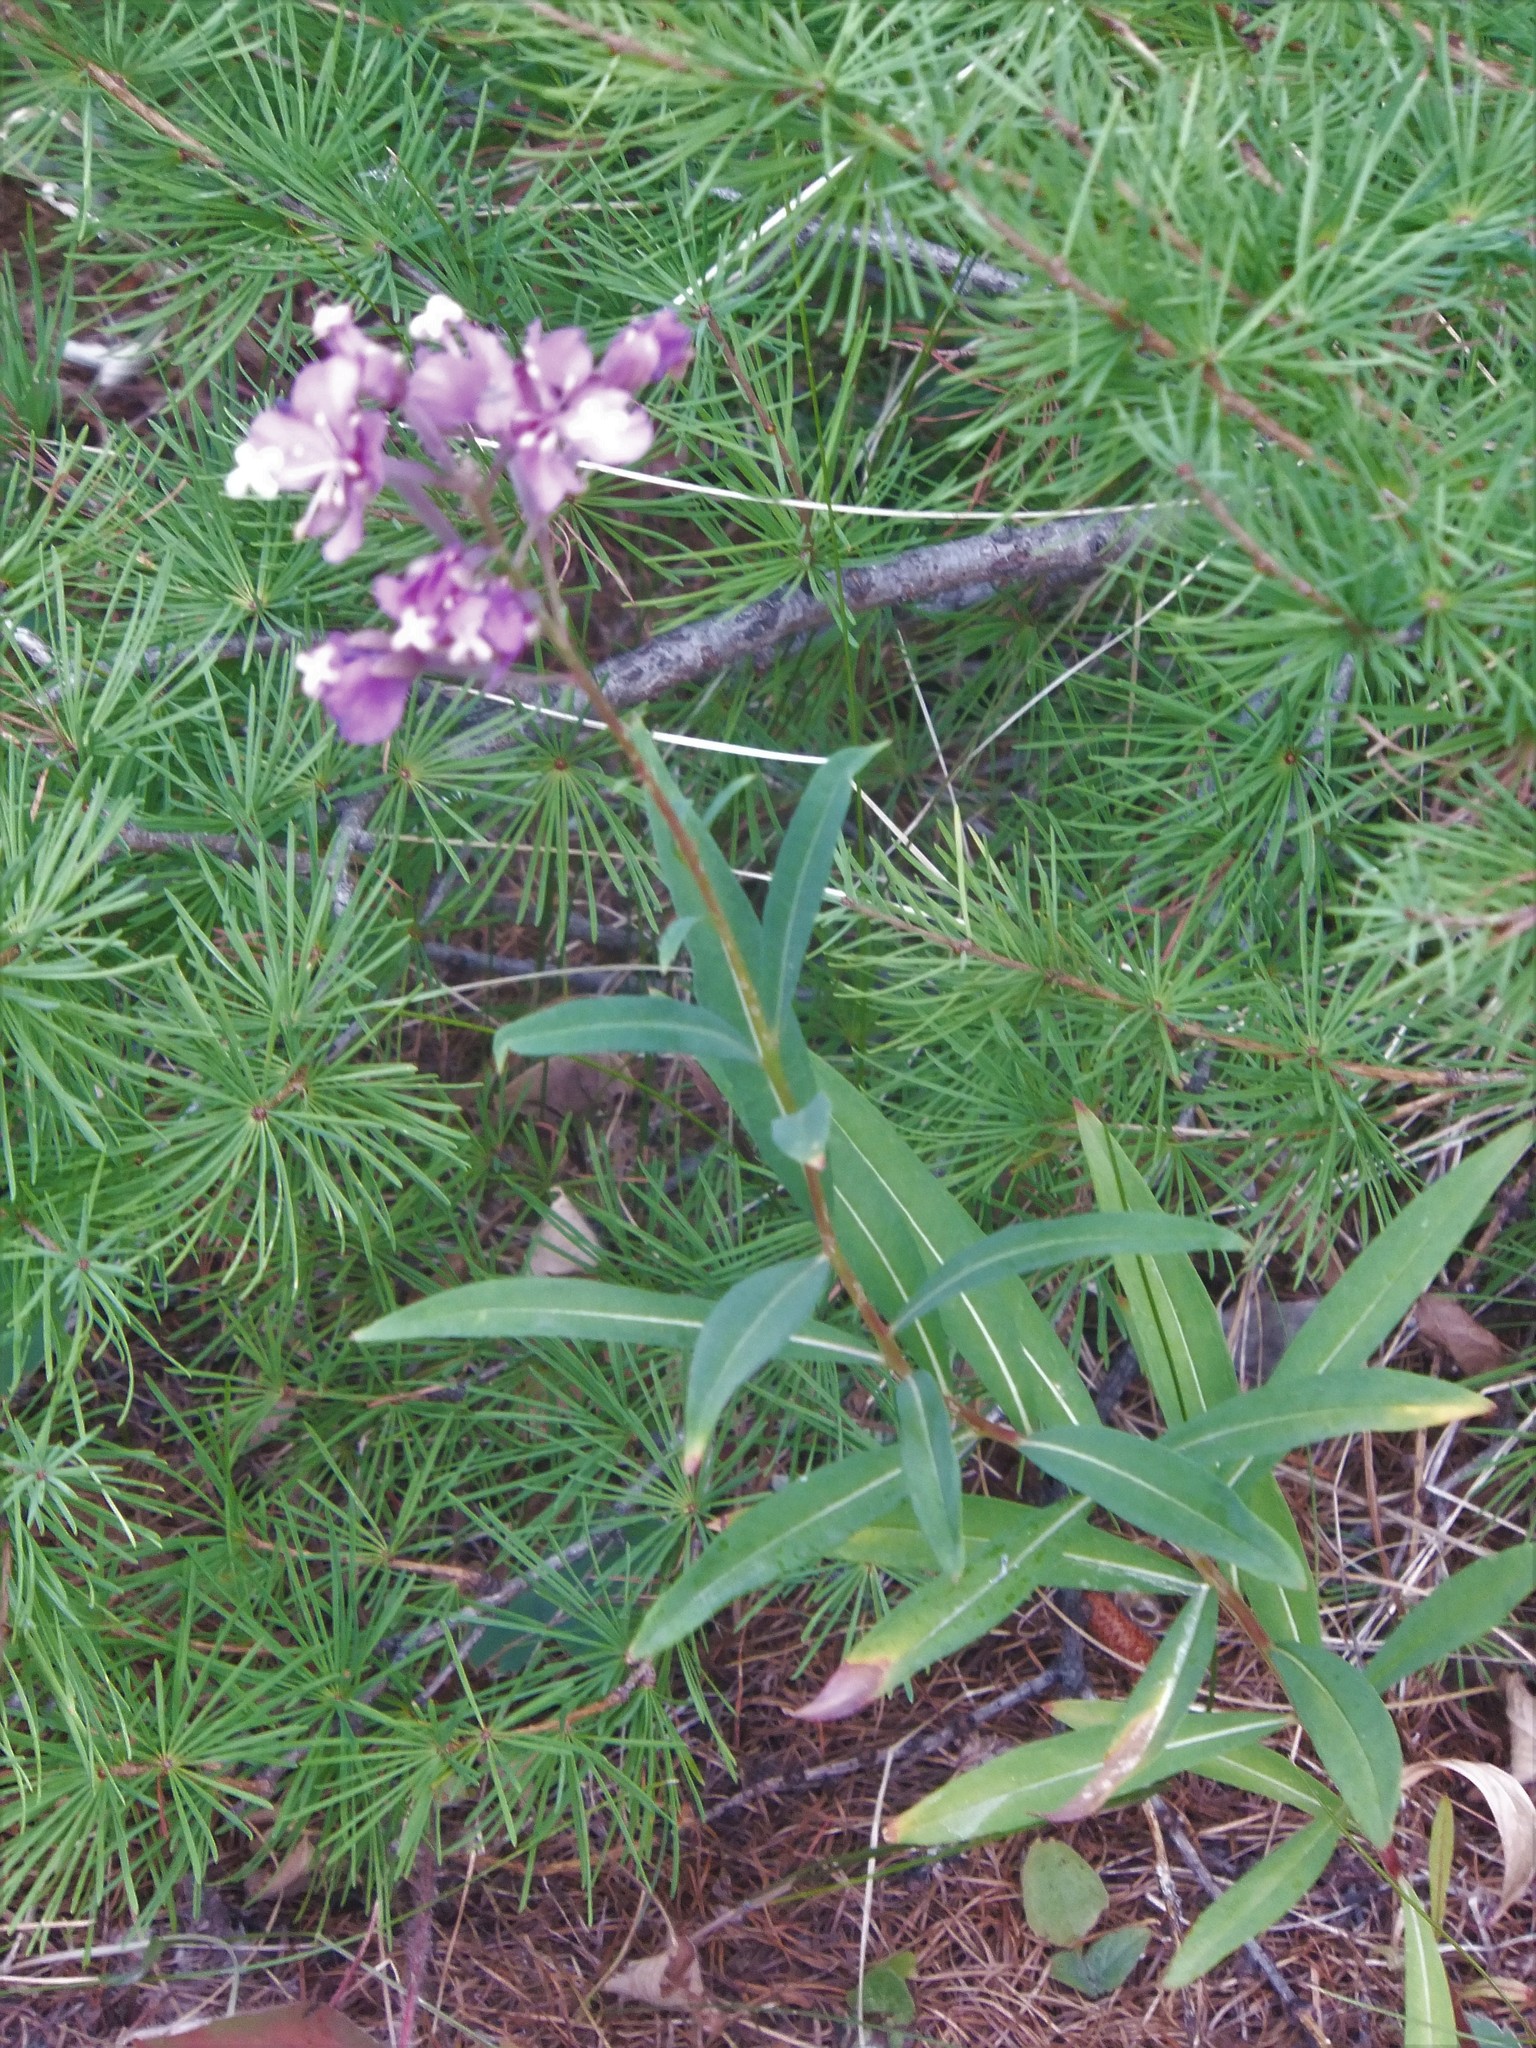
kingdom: Plantae
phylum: Tracheophyta
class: Magnoliopsida
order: Myrtales
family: Onagraceae
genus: Chamaenerion
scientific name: Chamaenerion angustifolium
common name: Fireweed
